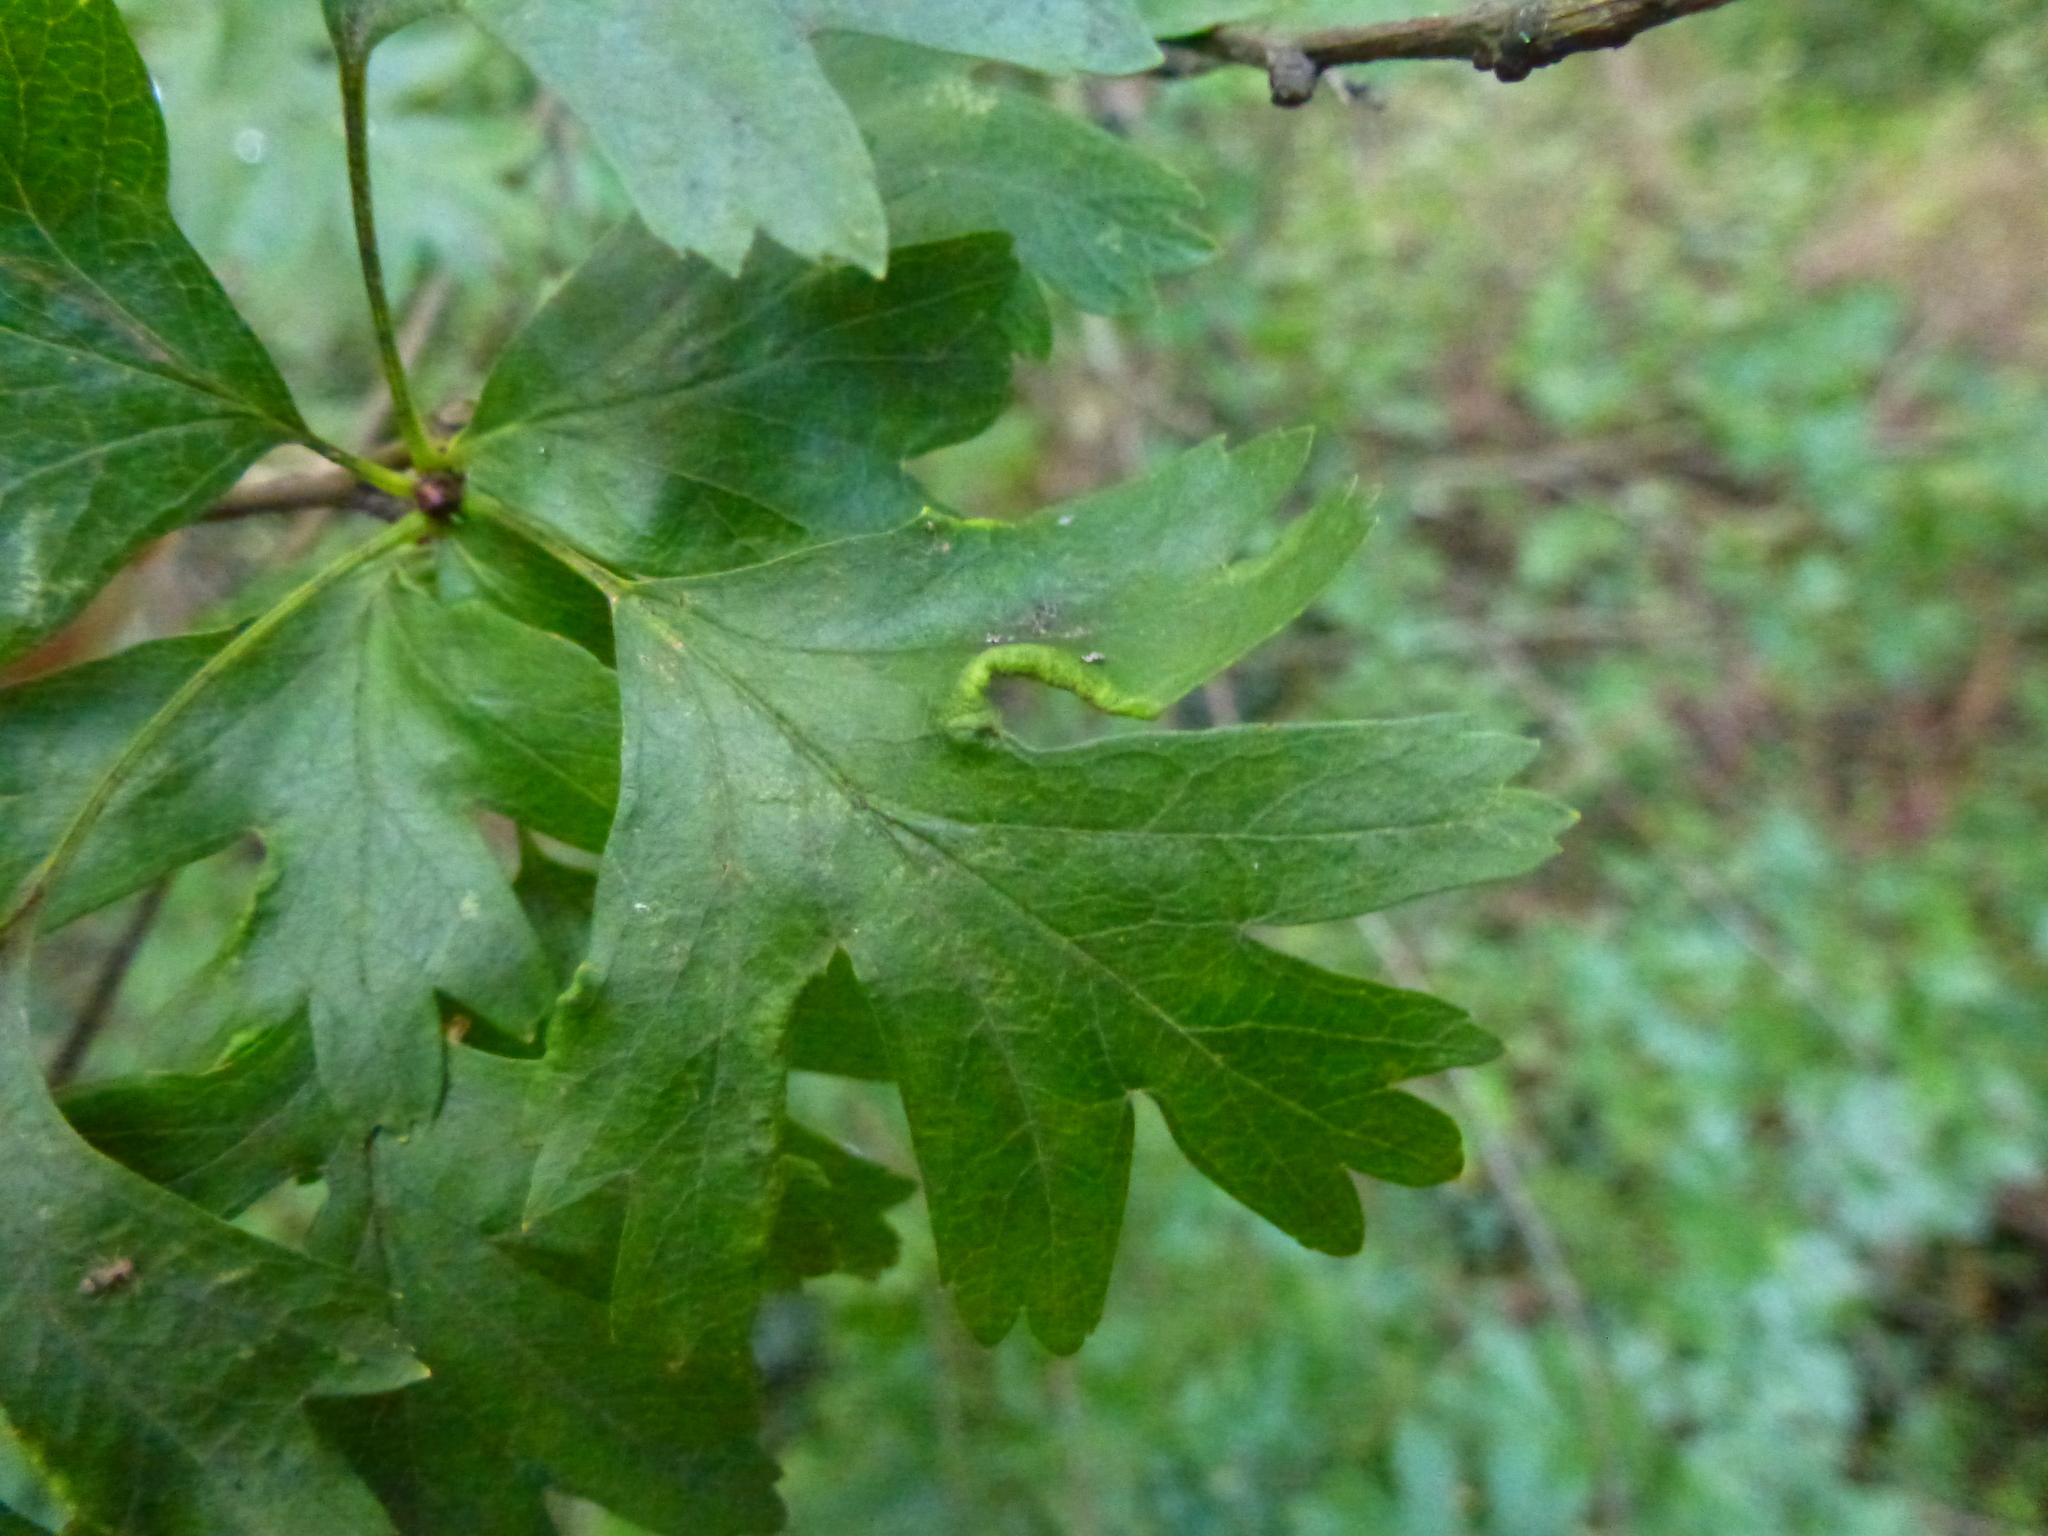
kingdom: Animalia
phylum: Arthropoda
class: Arachnida
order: Trombidiformes
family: Eriophyidae
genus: Phyllocoptes
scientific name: Phyllocoptes goniothorax
